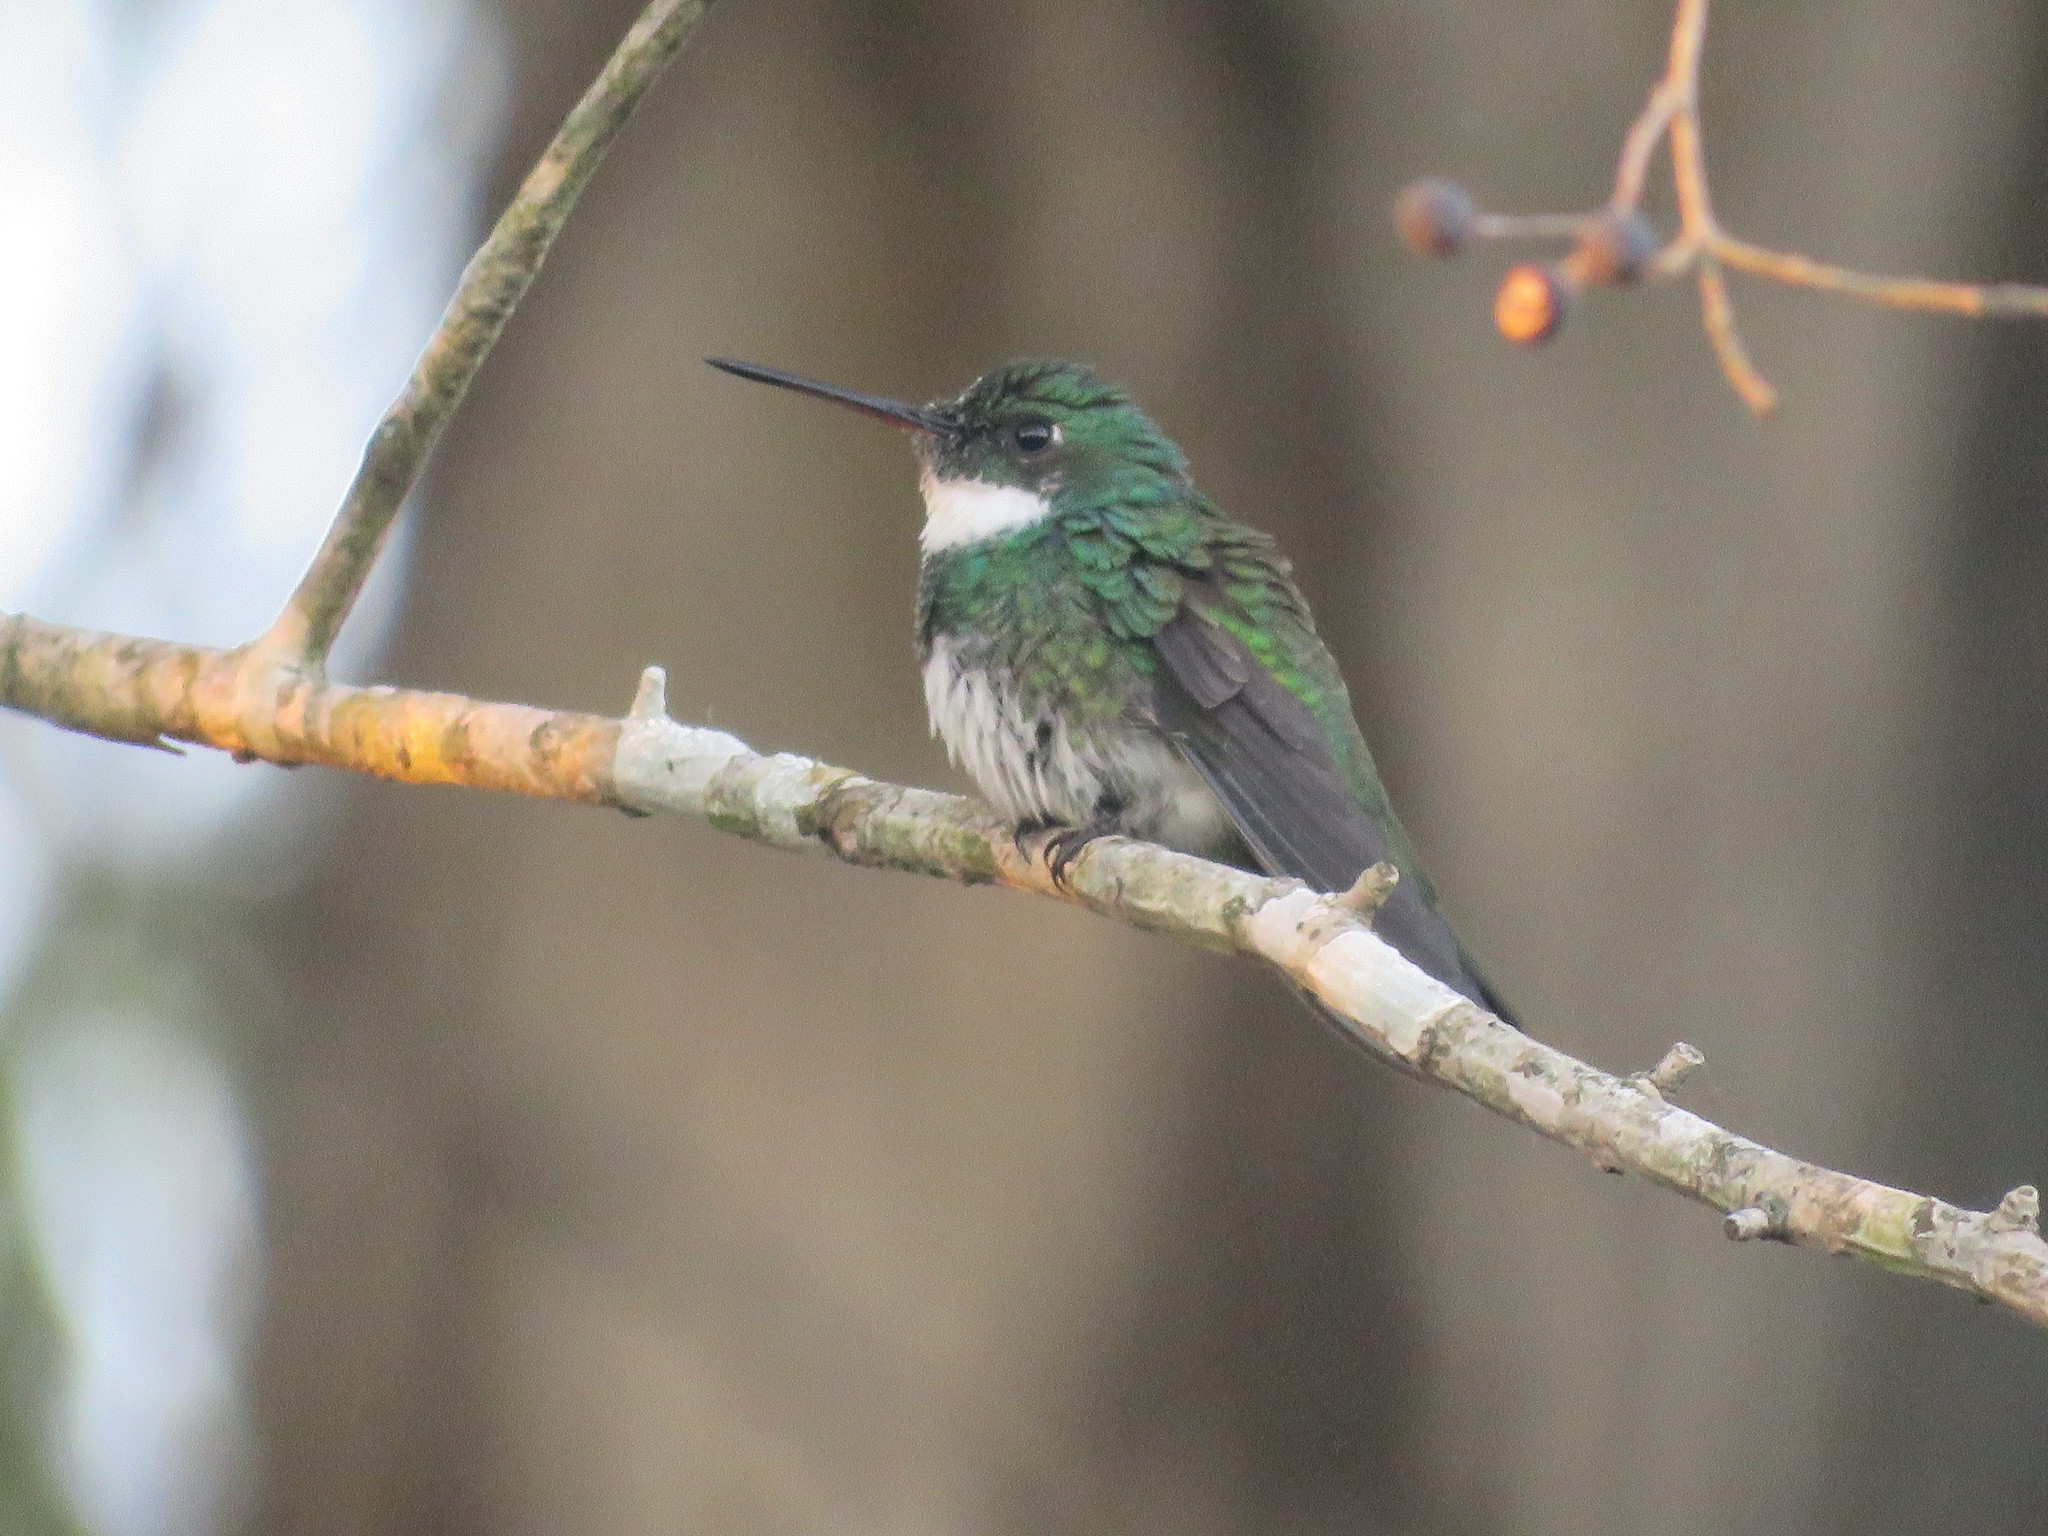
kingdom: Animalia
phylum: Chordata
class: Aves
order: Apodiformes
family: Trochilidae
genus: Leucochloris
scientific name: Leucochloris albicollis
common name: White-throated hummingbird
